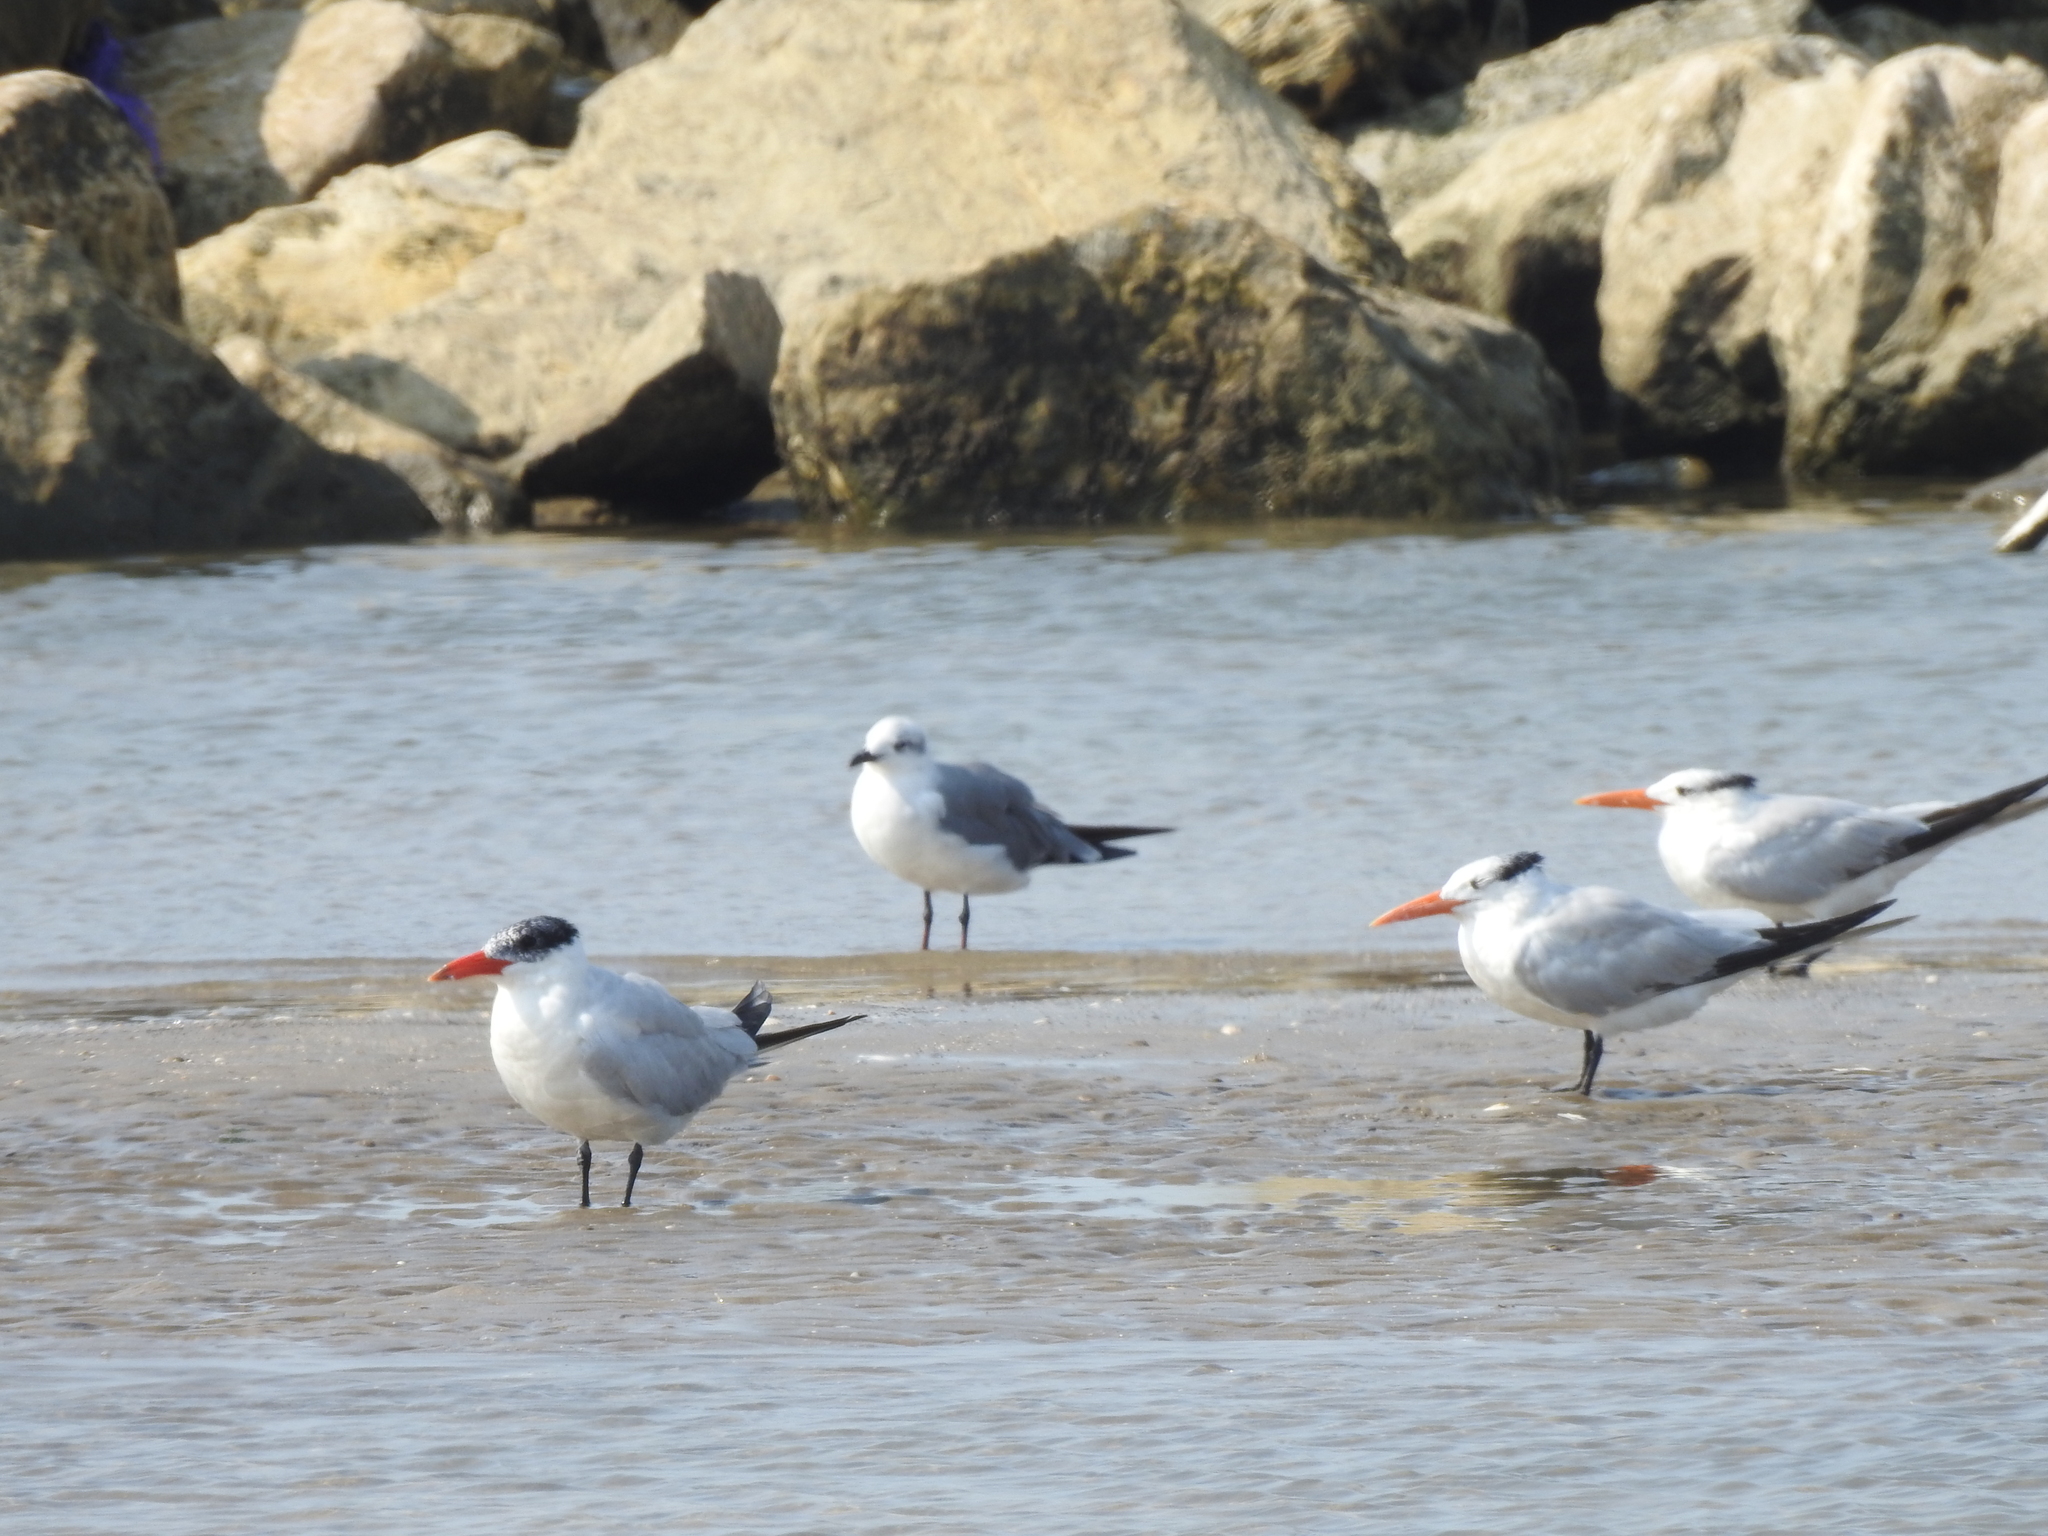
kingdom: Animalia
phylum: Chordata
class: Aves
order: Charadriiformes
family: Laridae
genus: Hydroprogne
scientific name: Hydroprogne caspia
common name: Caspian tern
